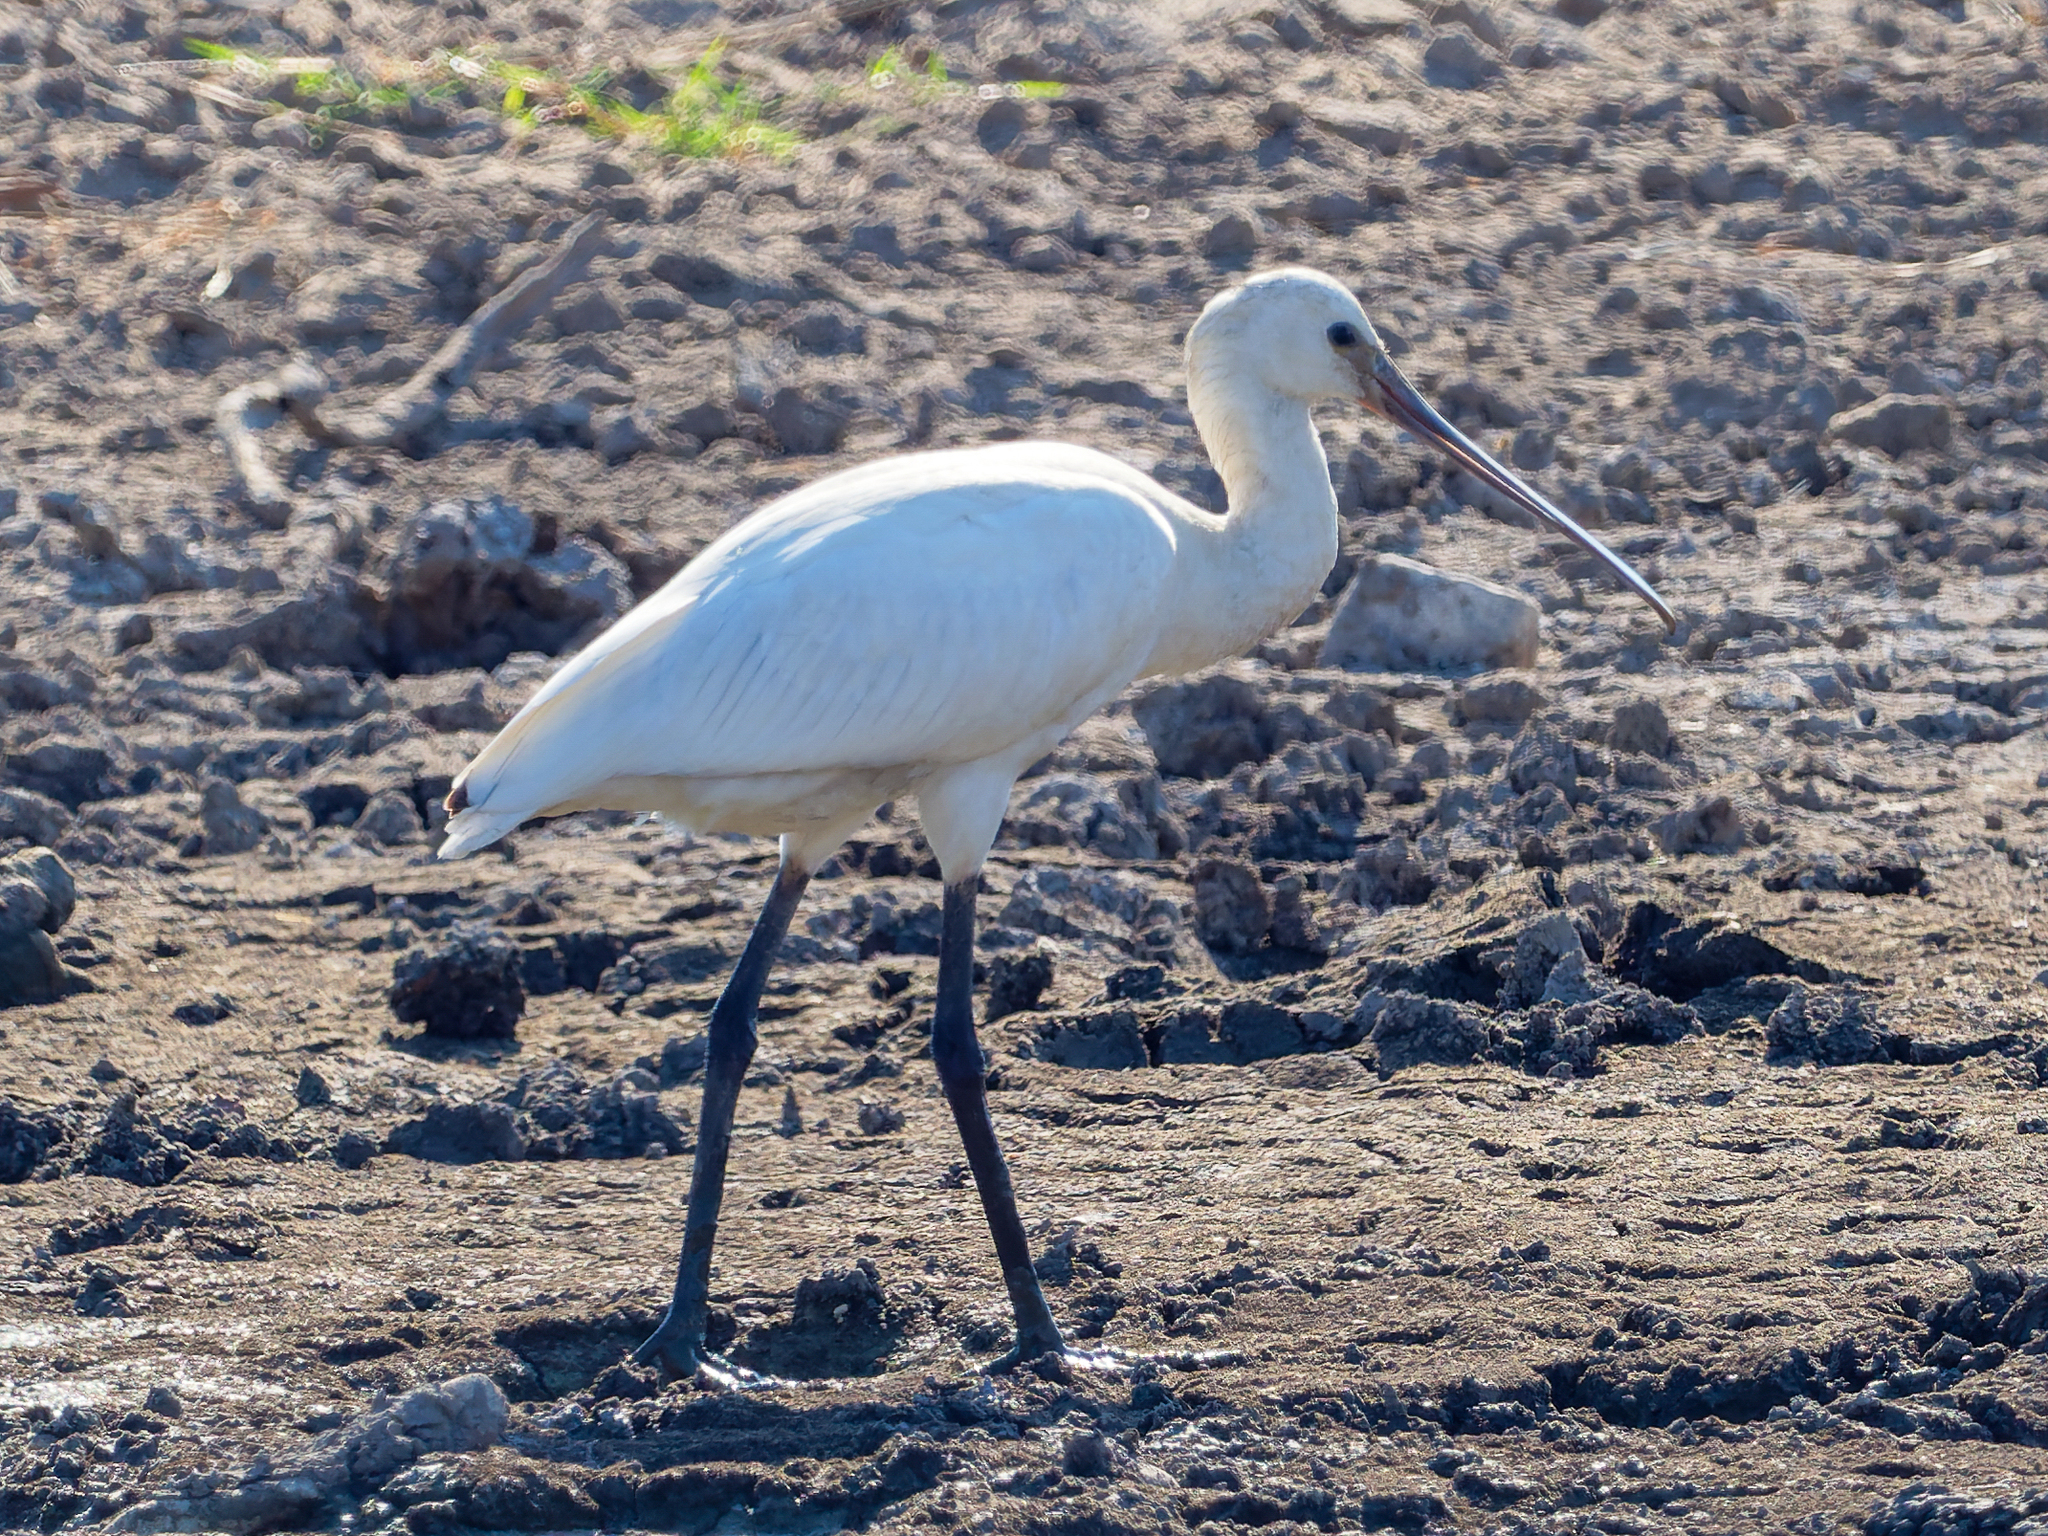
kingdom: Animalia
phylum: Chordata
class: Aves
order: Pelecaniformes
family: Threskiornithidae
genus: Platalea
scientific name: Platalea leucorodia
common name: Eurasian spoonbill
